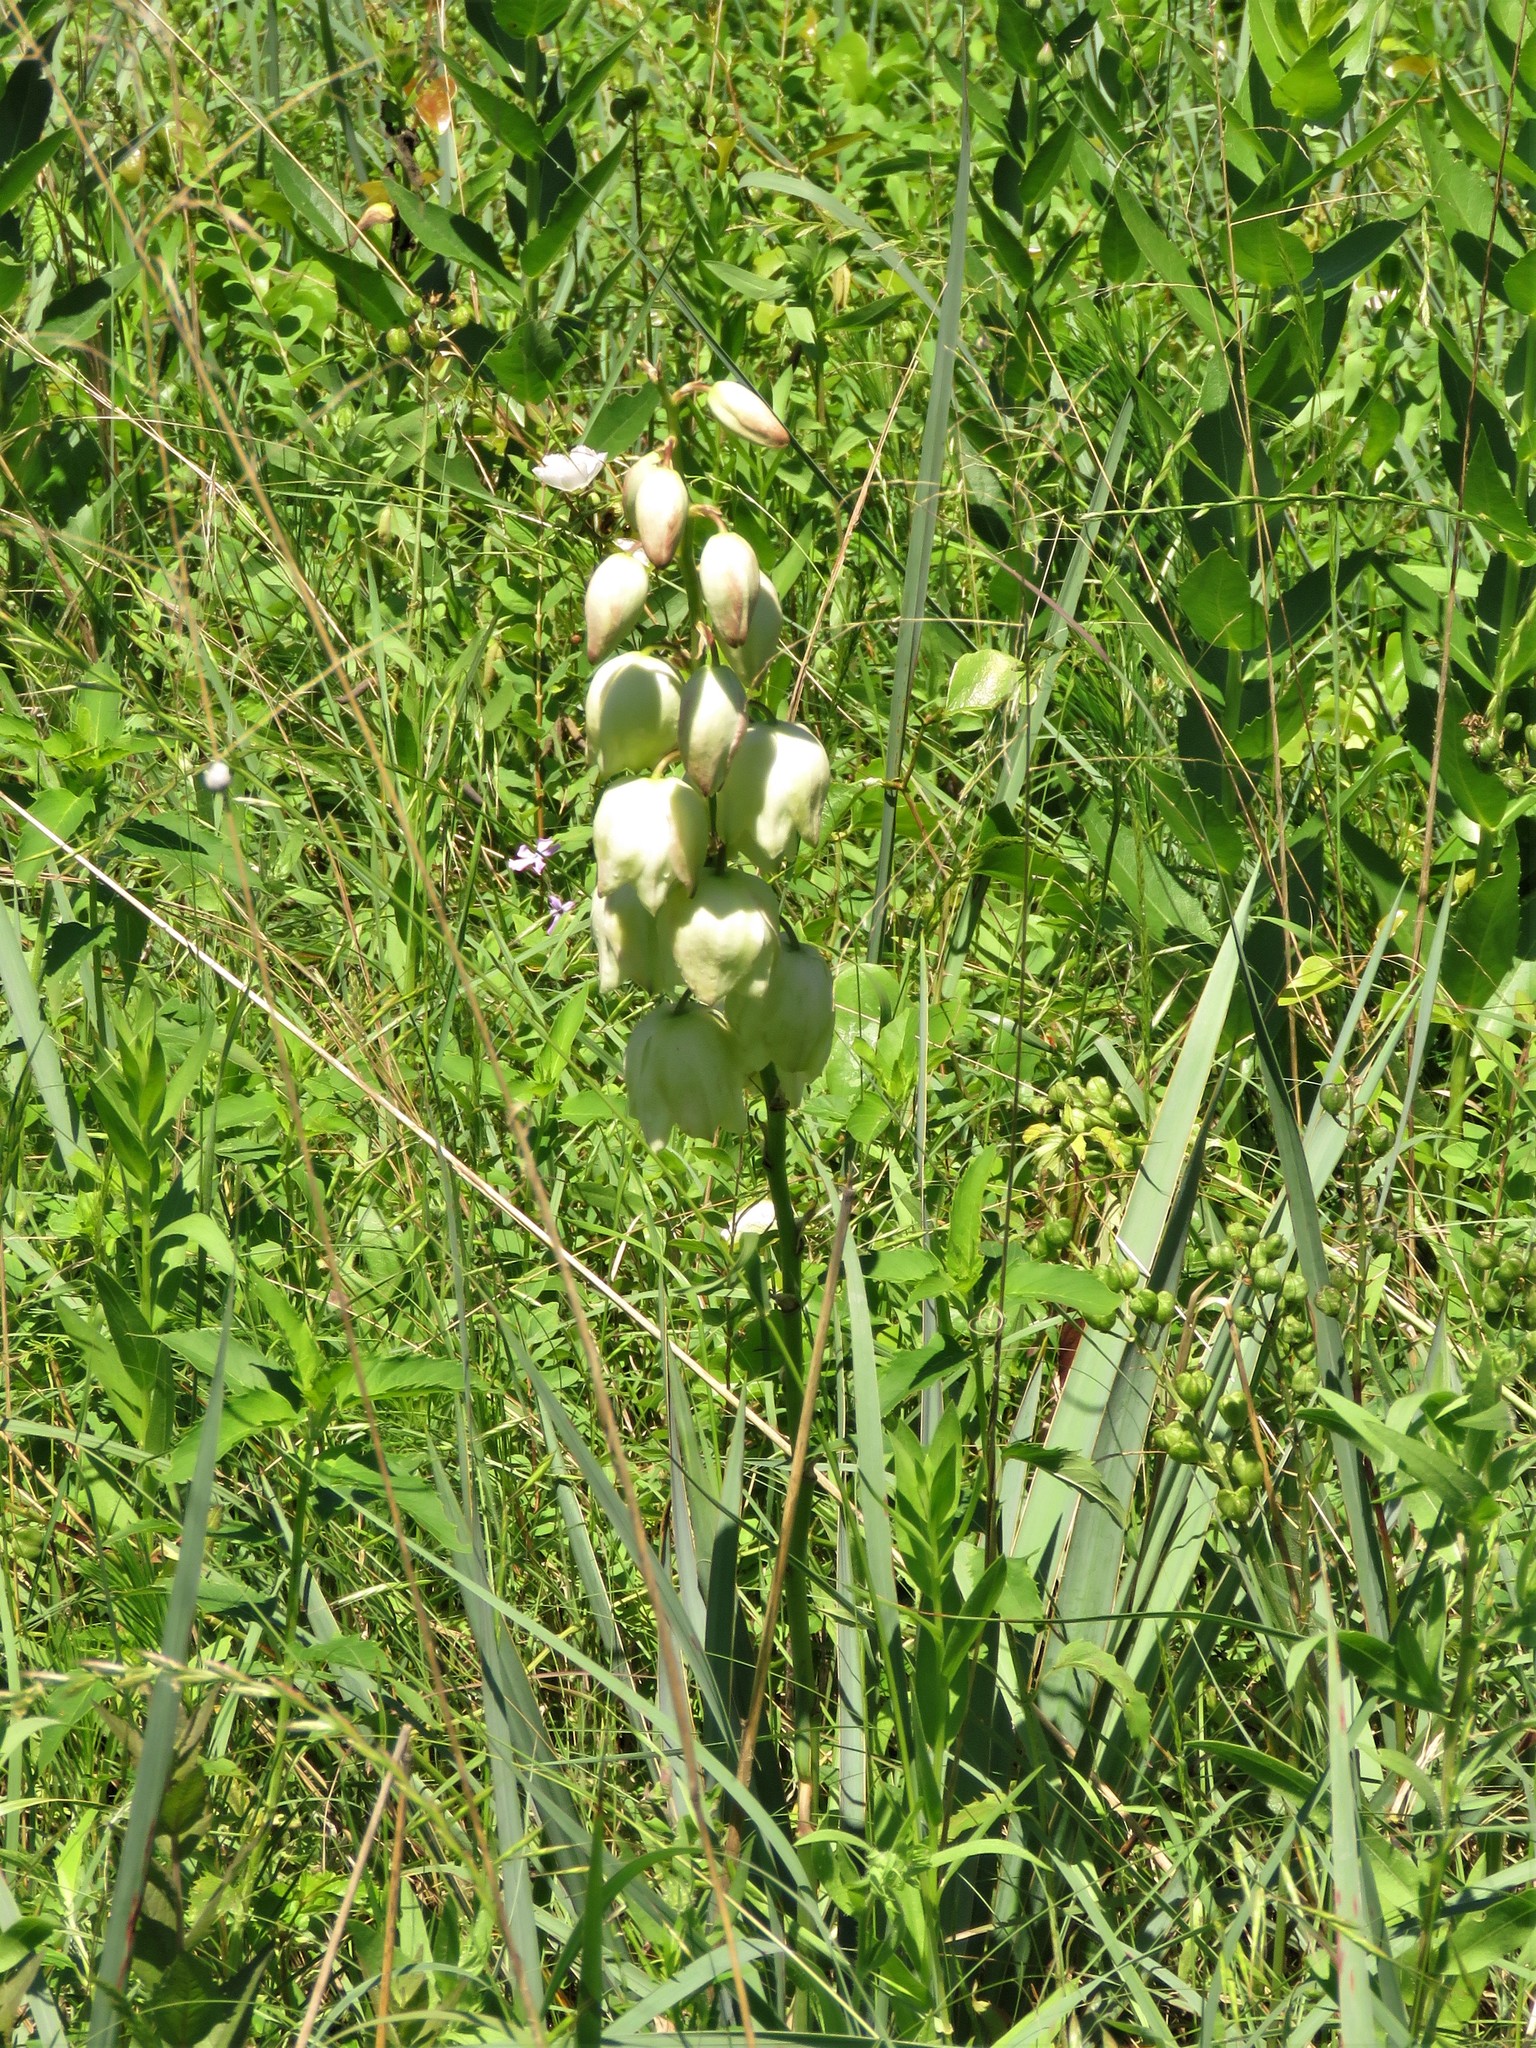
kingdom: Plantae
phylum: Tracheophyta
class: Liliopsida
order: Asparagales
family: Asparagaceae
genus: Yucca
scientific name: Yucca arkansana
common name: Arkansas yucca
